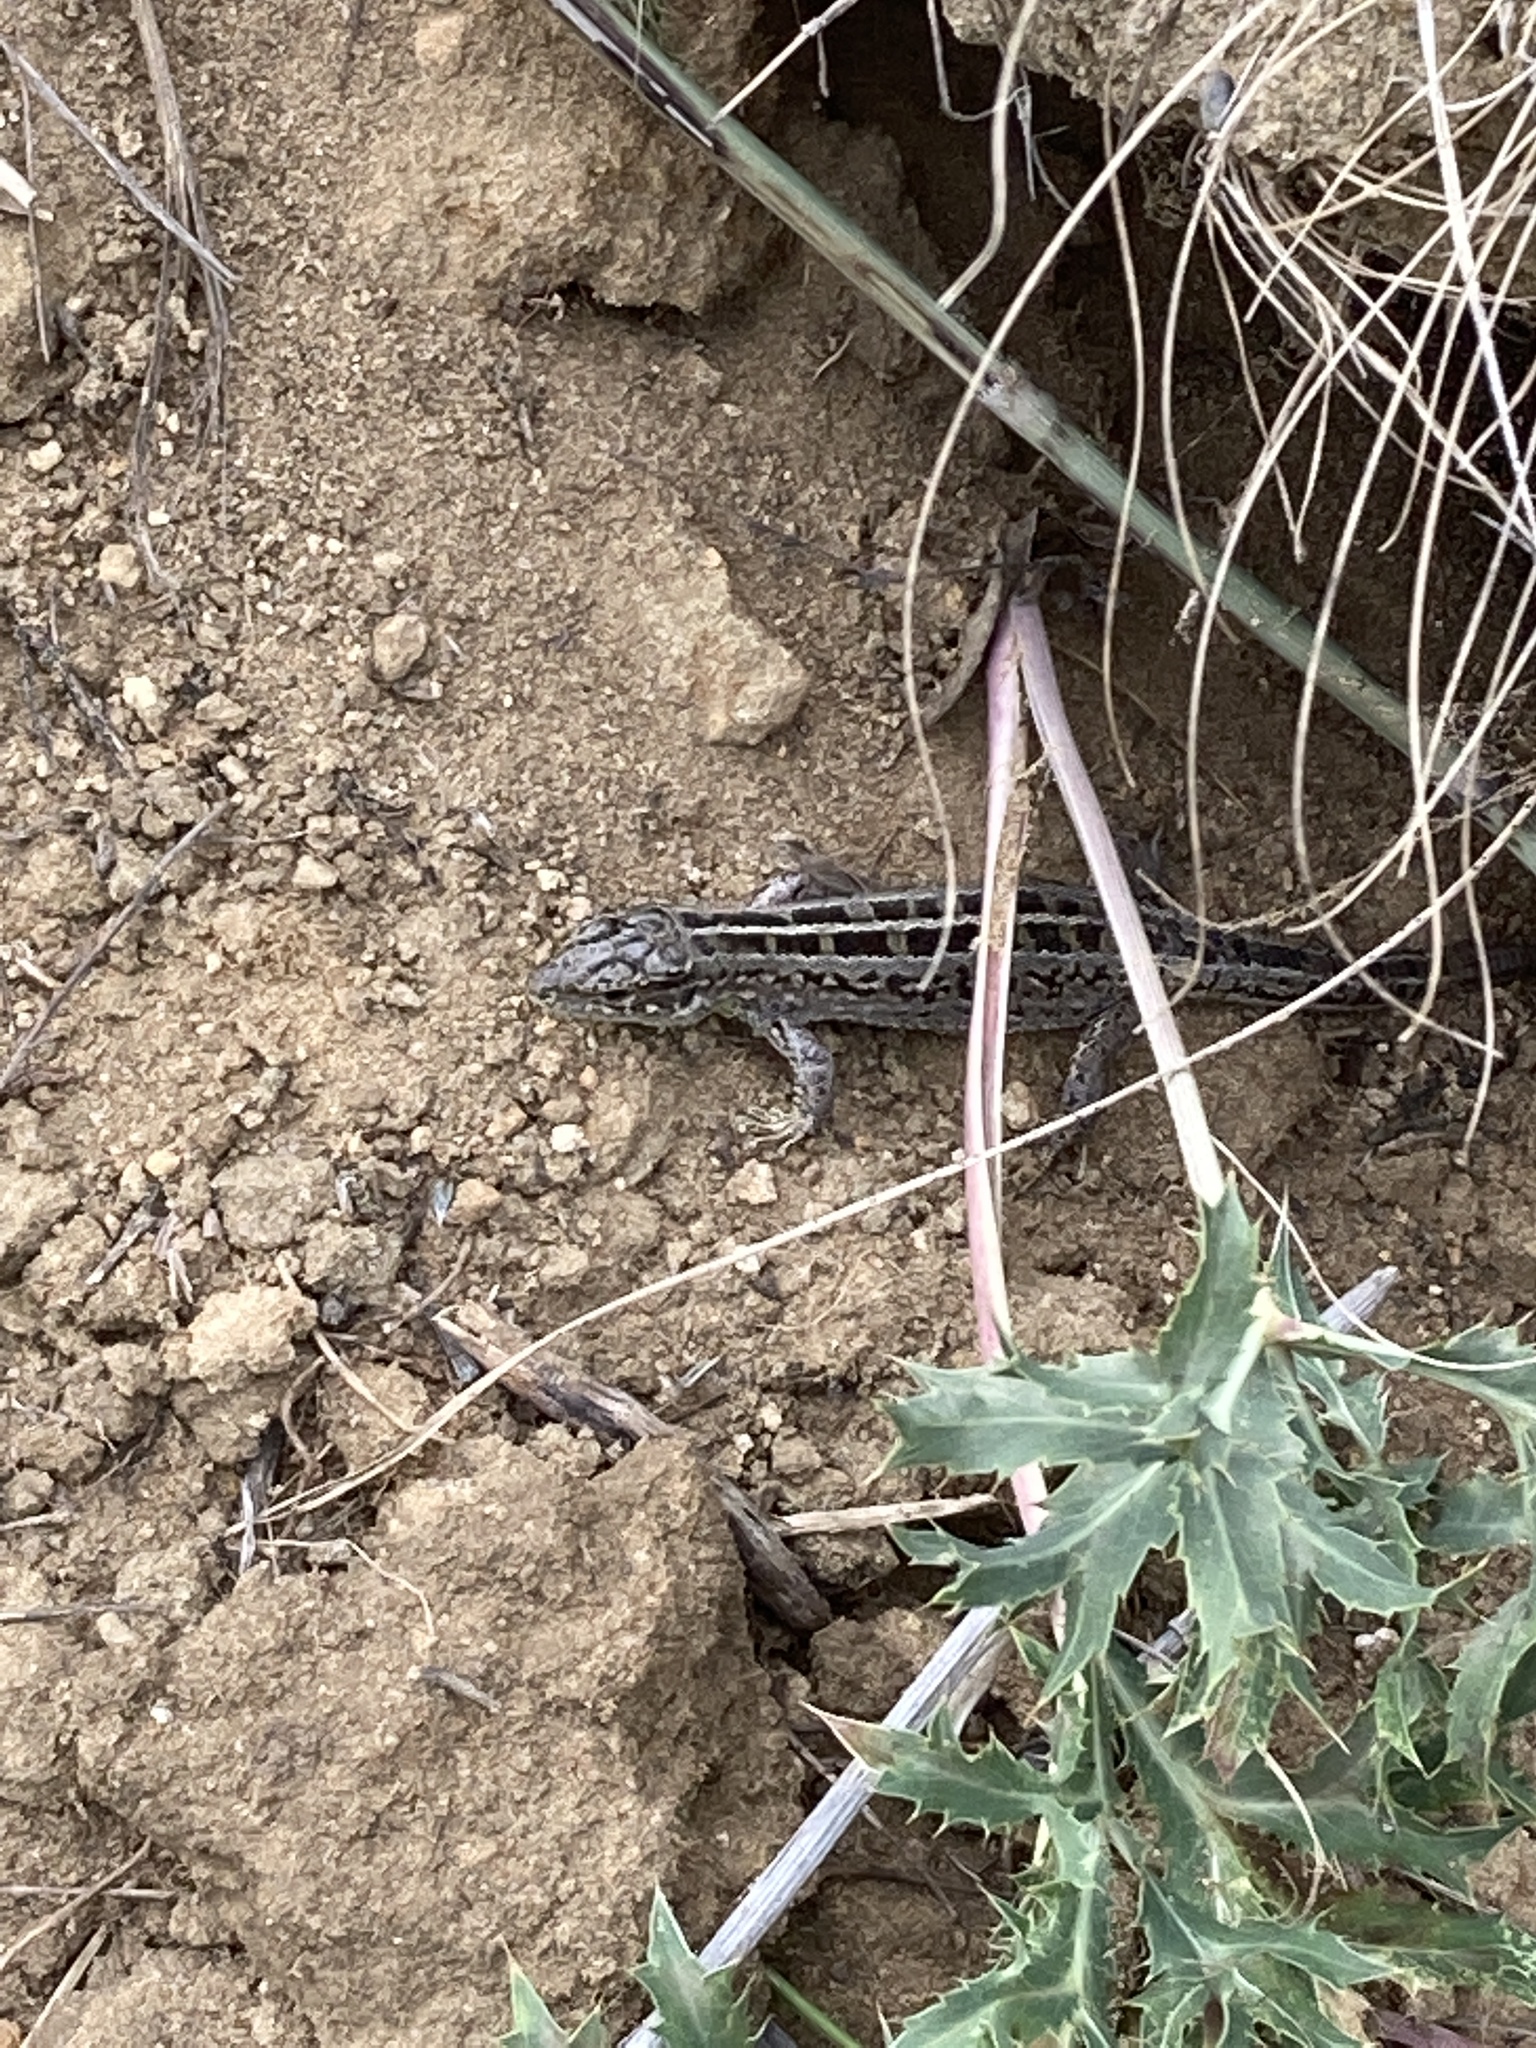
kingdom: Animalia
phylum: Chordata
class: Squamata
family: Lacertidae
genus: Lacerta
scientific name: Lacerta agilis
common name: Sand lizard
